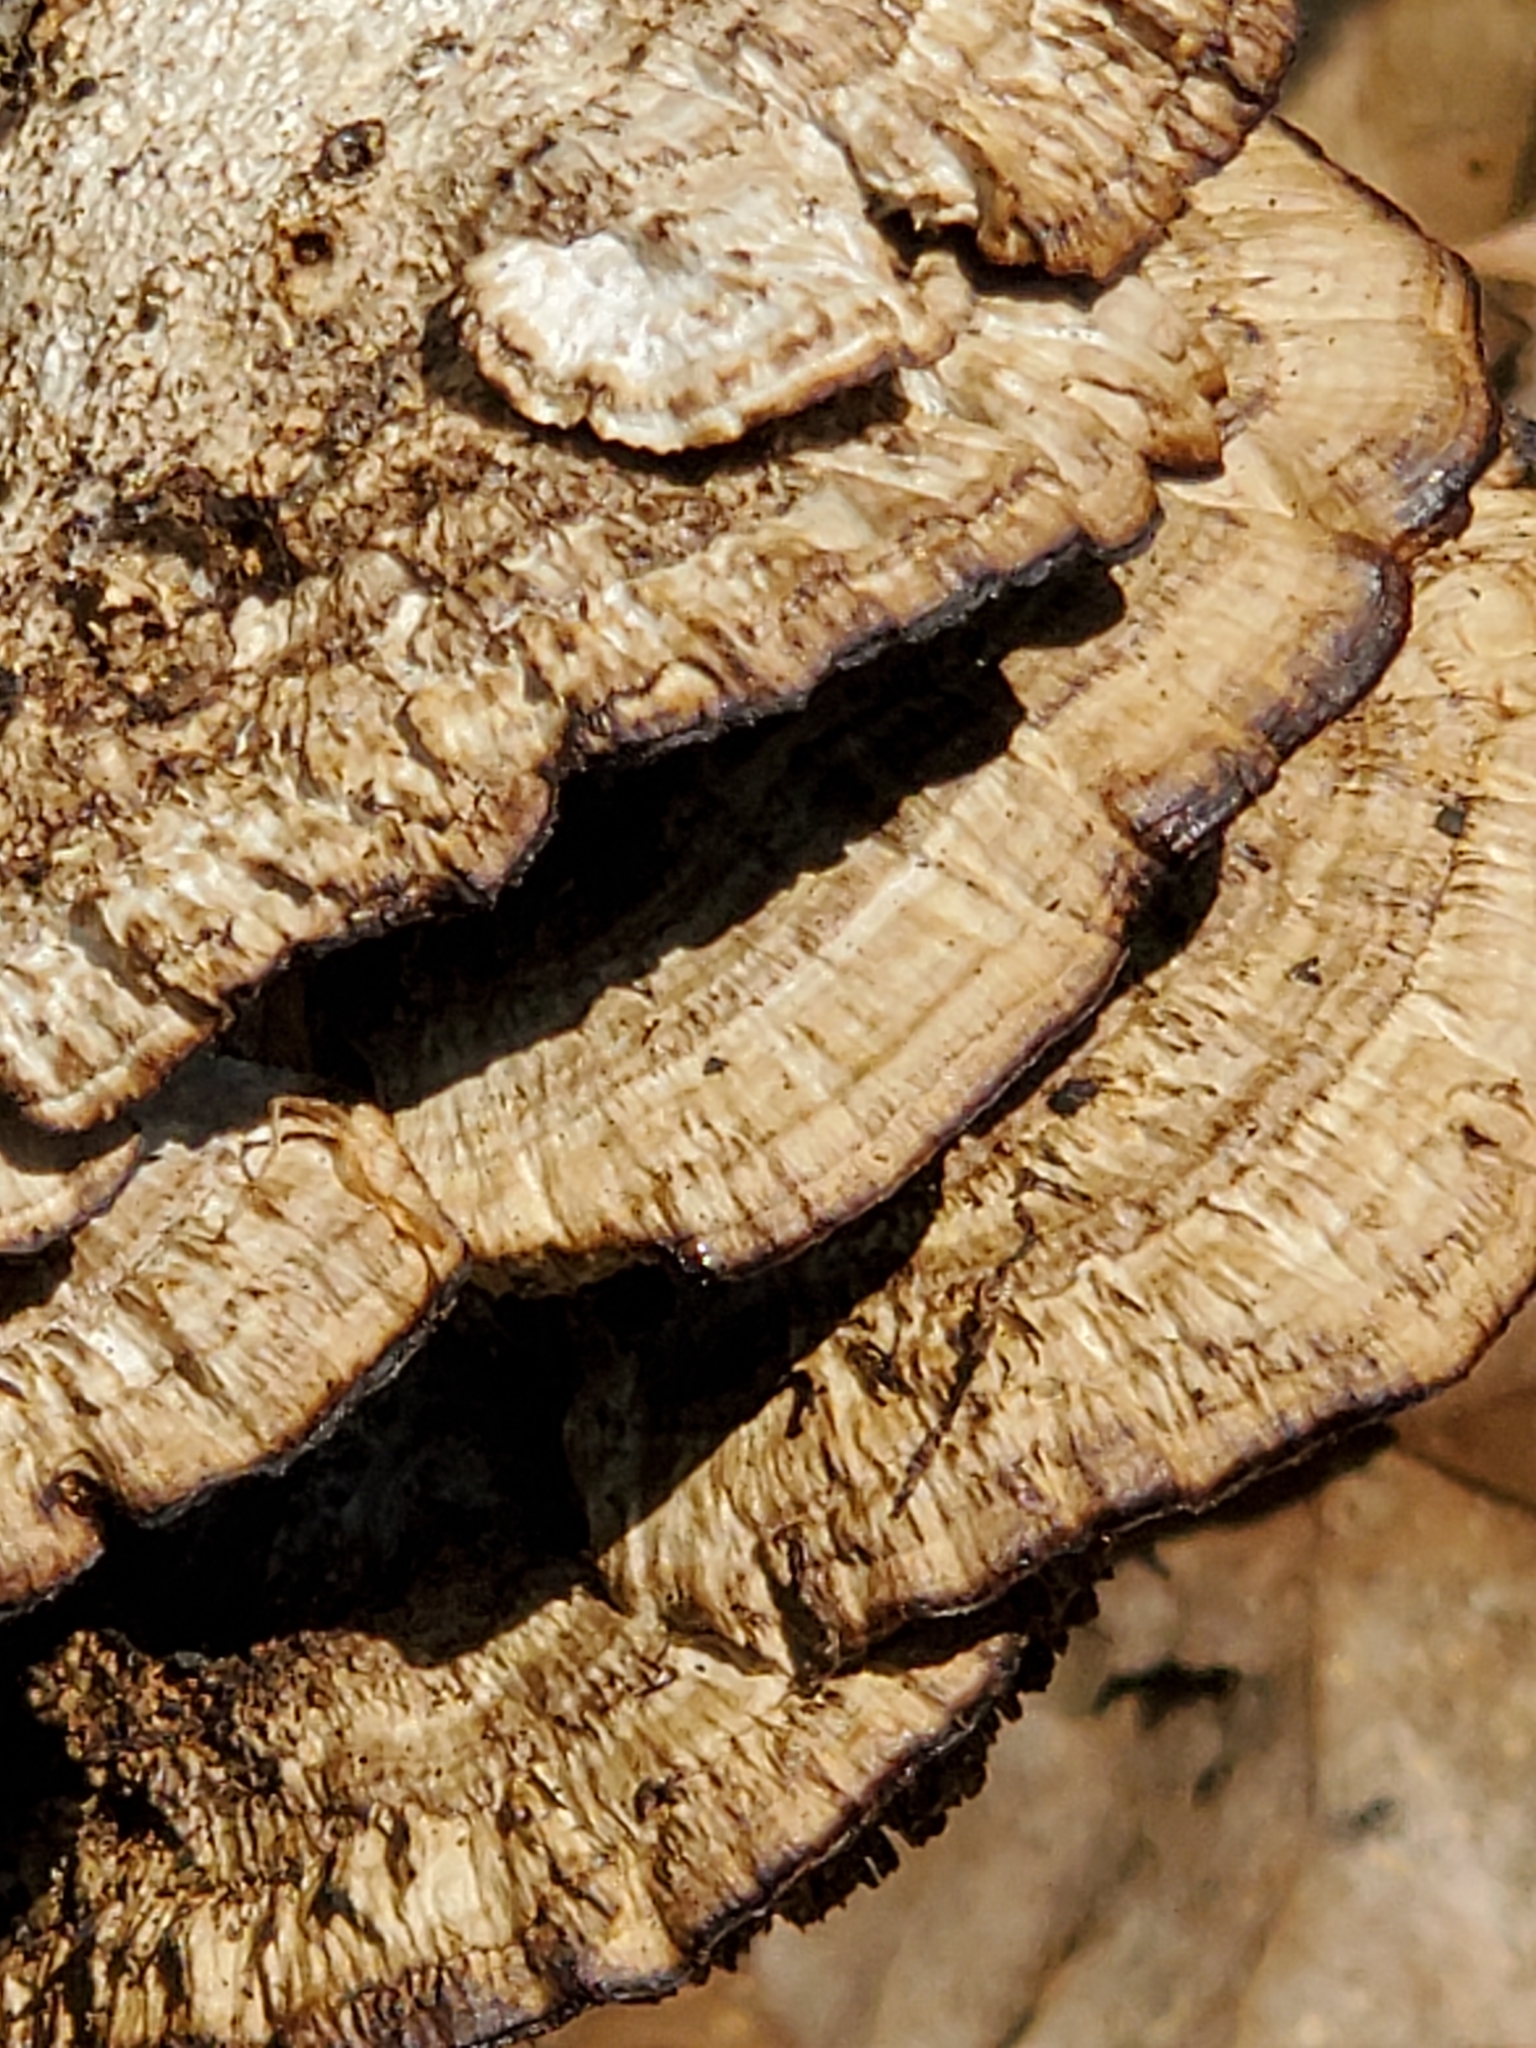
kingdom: Fungi
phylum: Basidiomycota
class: Agaricomycetes
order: Polyporales
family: Polyporaceae
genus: Daedaleopsis
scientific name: Daedaleopsis confragosa
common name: Blushing bracket
